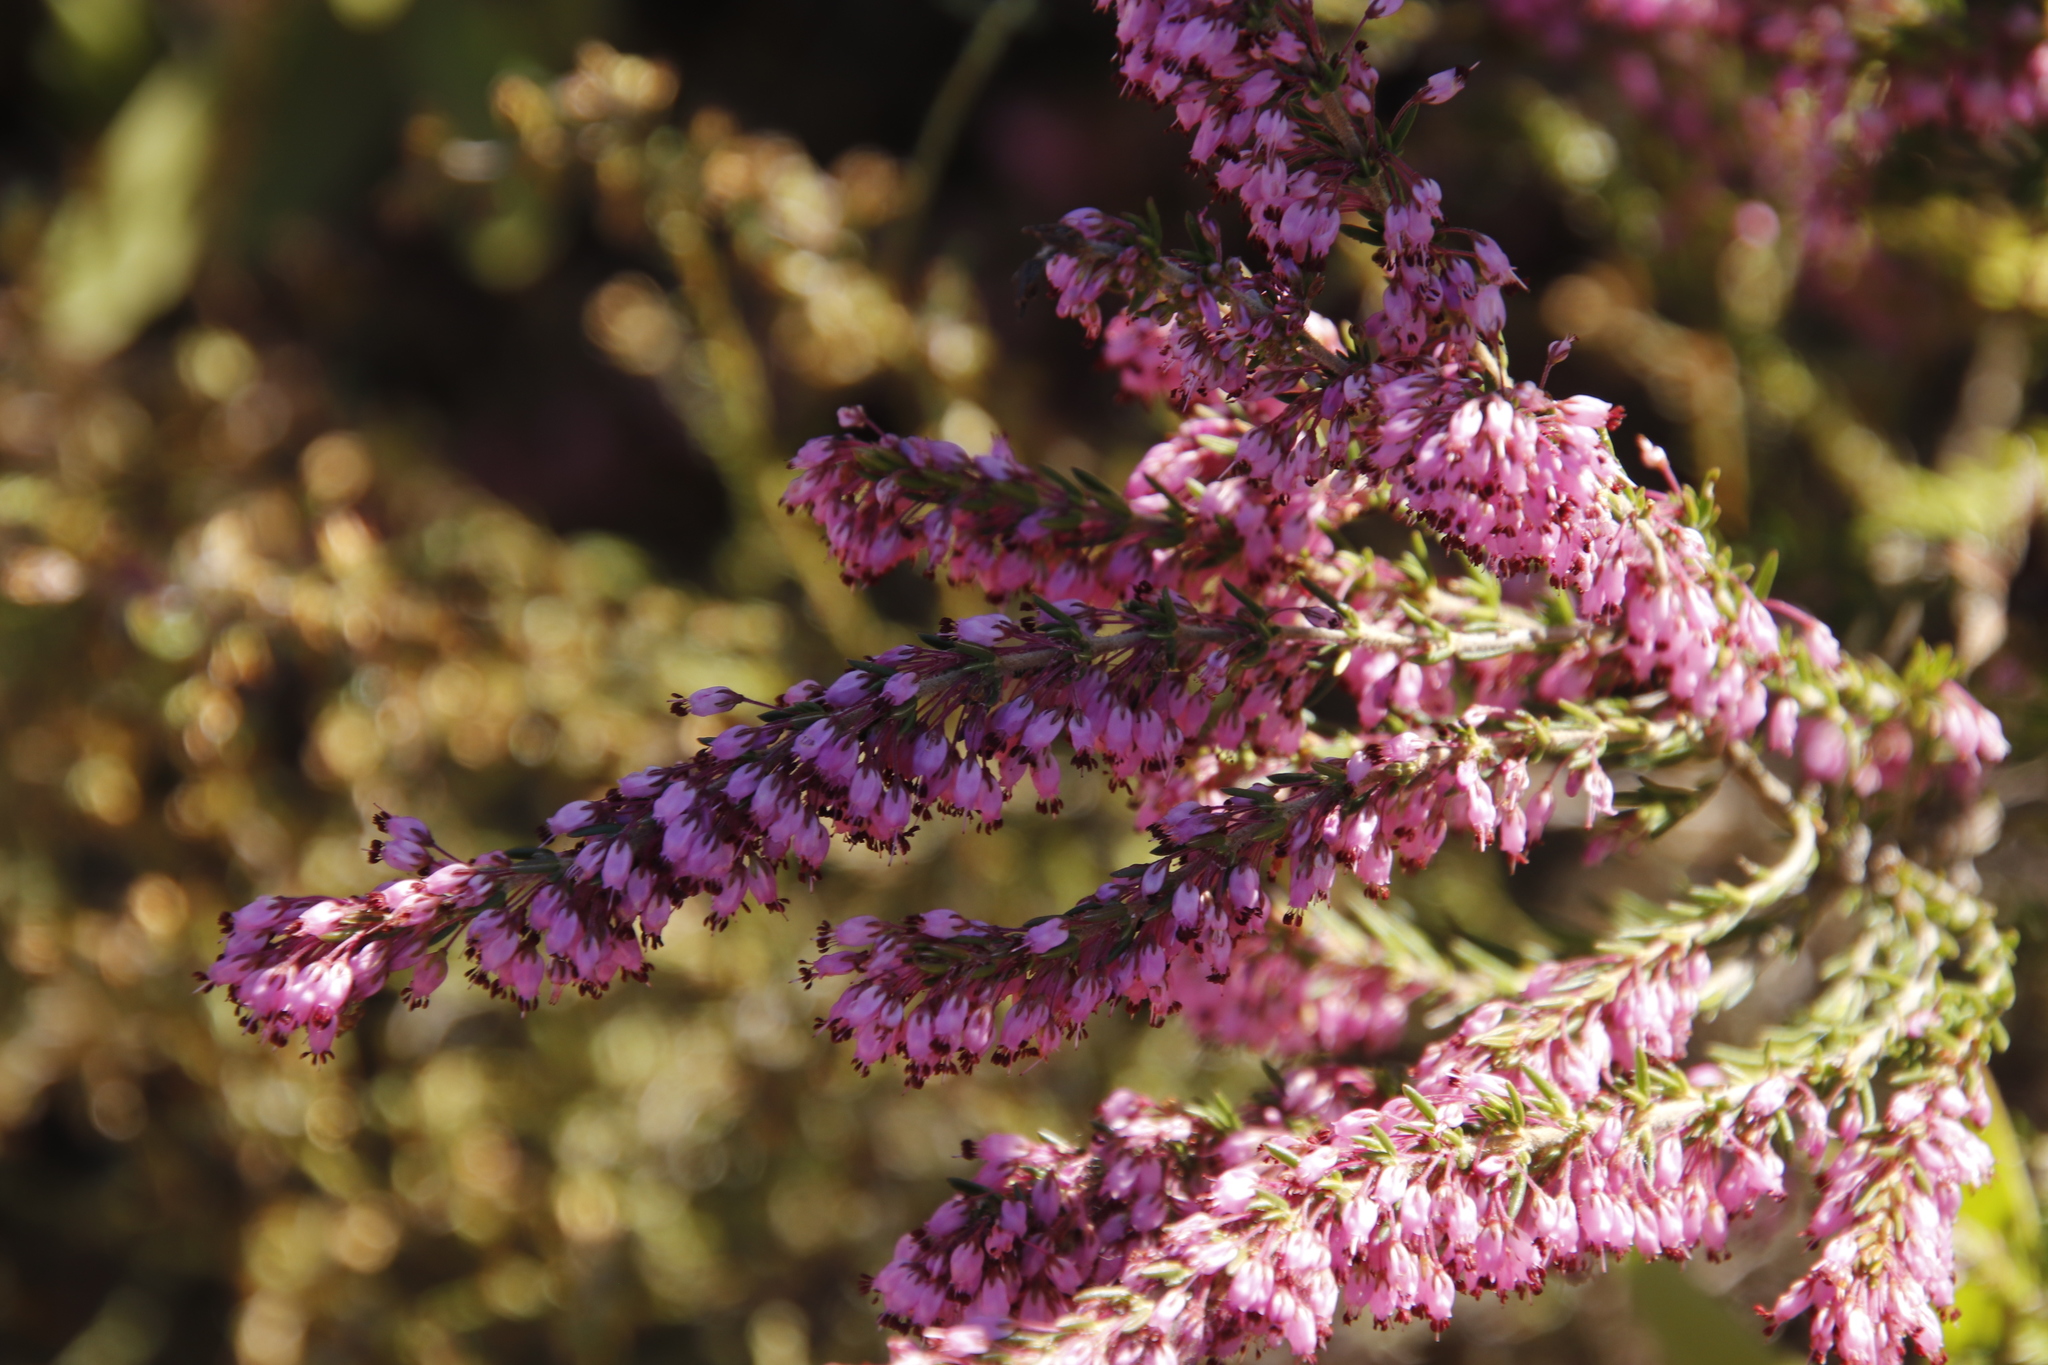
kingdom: Plantae
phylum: Tracheophyta
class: Magnoliopsida
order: Ericales
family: Ericaceae
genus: Erica
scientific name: Erica nudiflora
